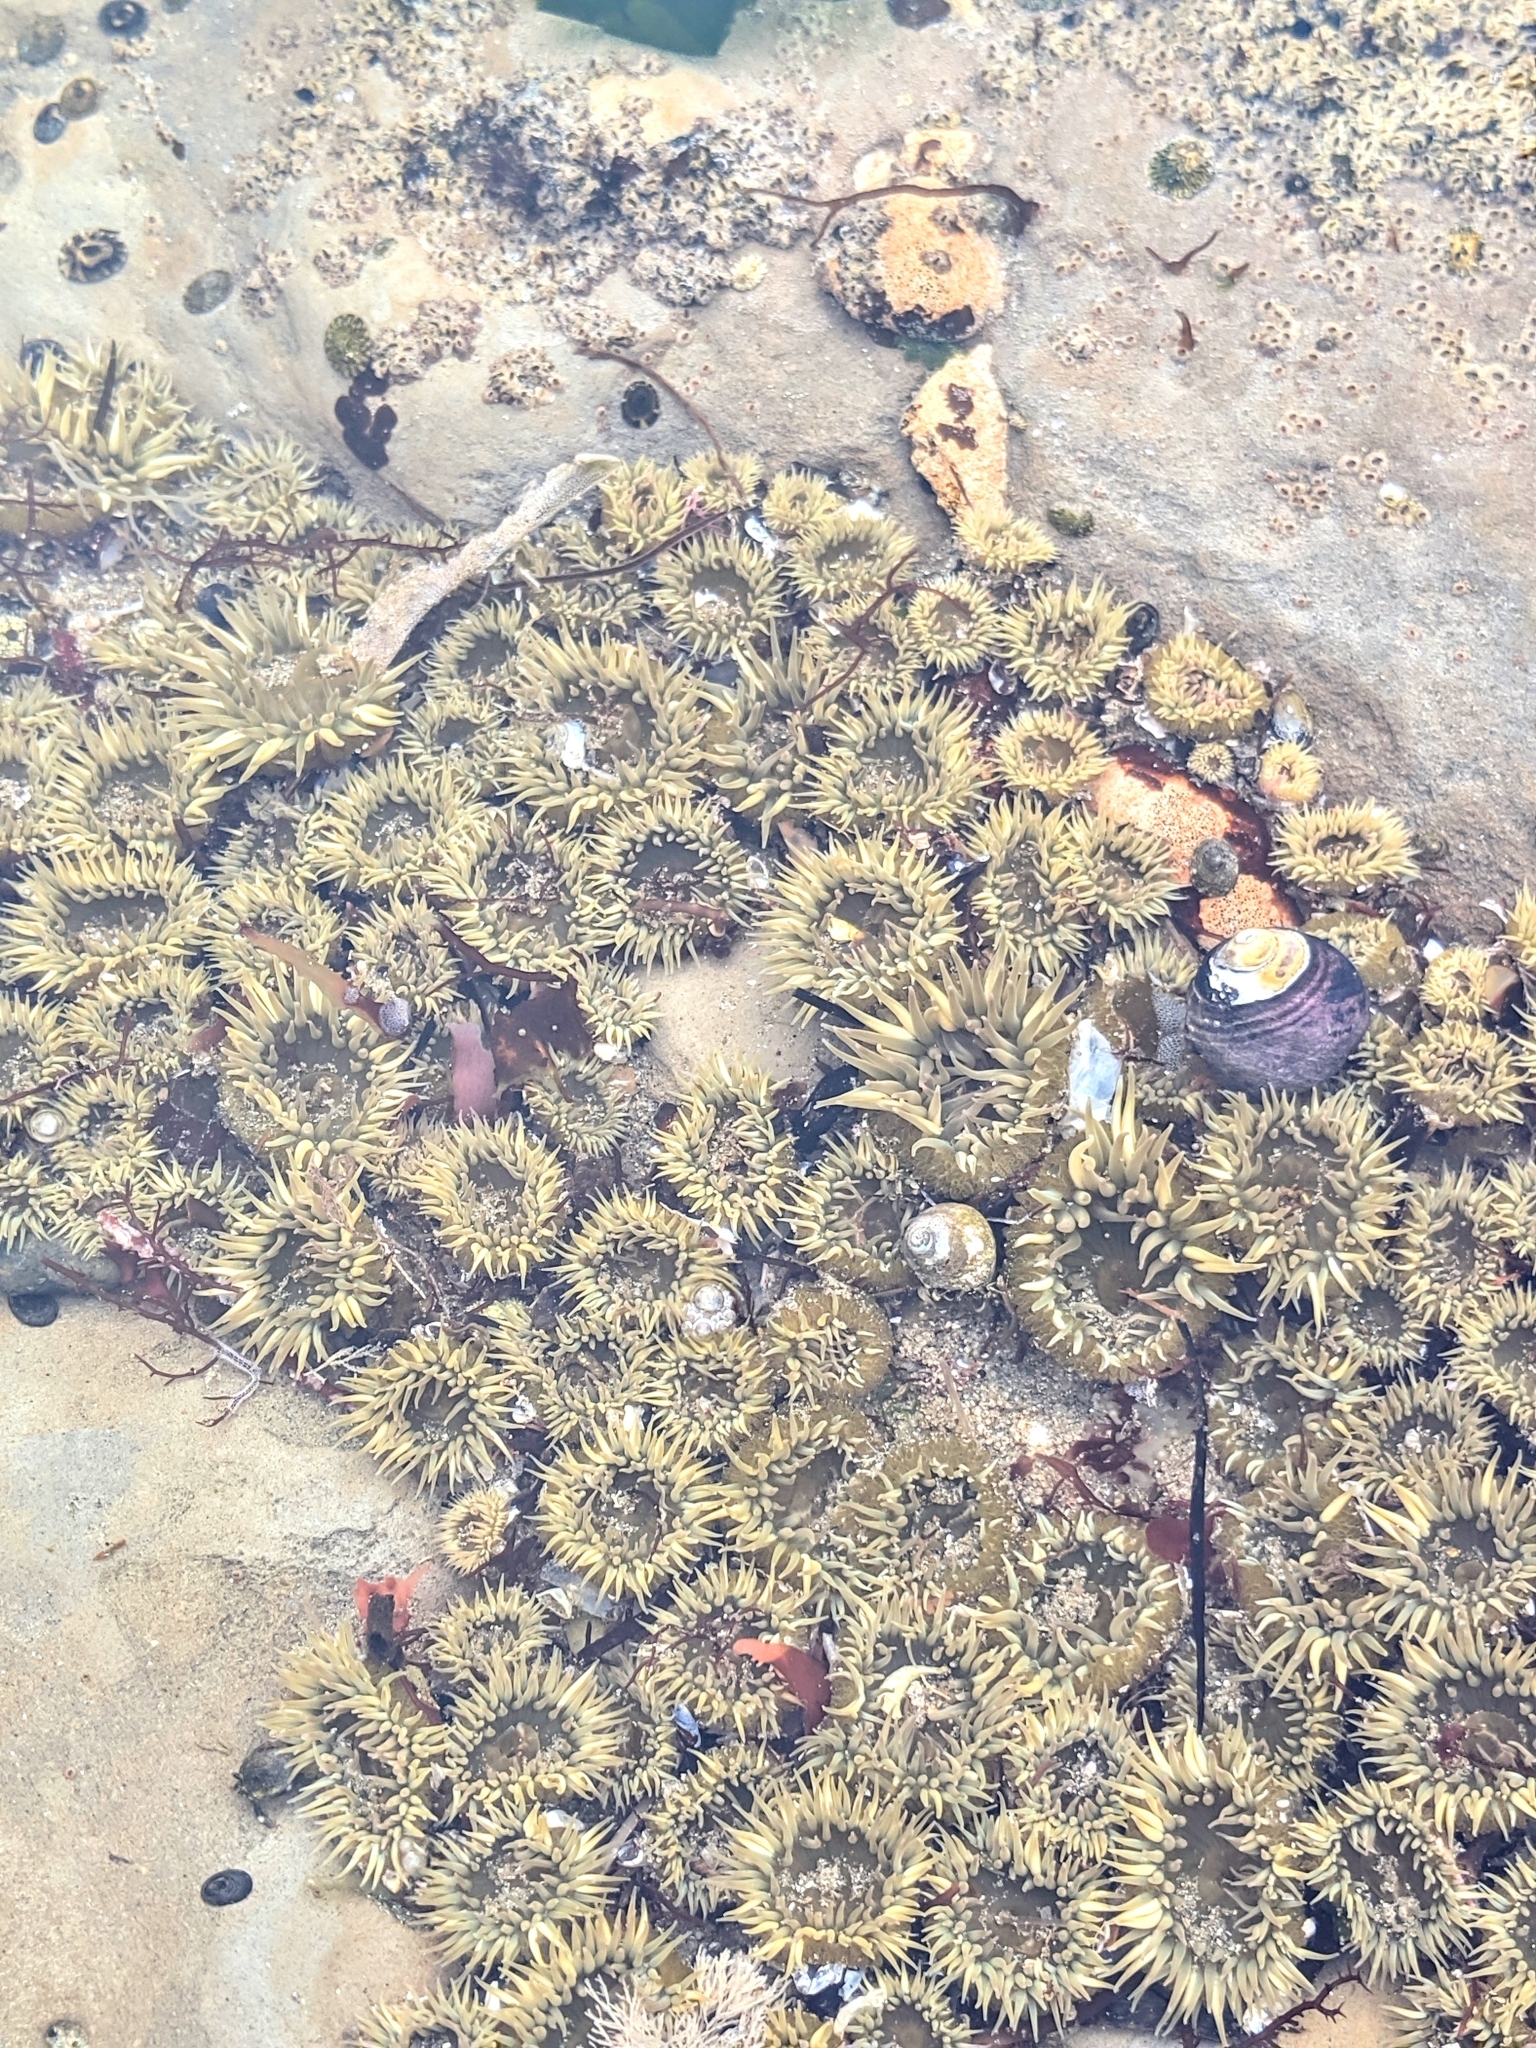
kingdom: Animalia
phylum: Cnidaria
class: Anthozoa
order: Actiniaria
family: Actiniidae
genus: Anthopleura
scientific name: Anthopleura elegantissima
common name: Clonal anemone
